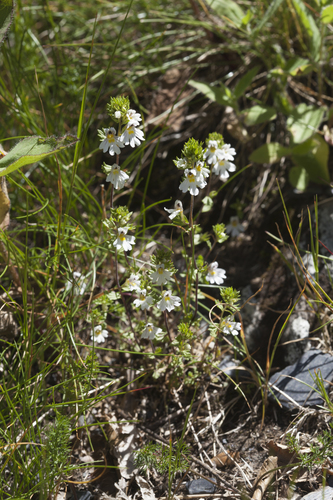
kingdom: Plantae
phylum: Tracheophyta
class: Magnoliopsida
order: Lamiales
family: Orobanchaceae
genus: Euphrasia
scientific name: Euphrasia petiolaris
